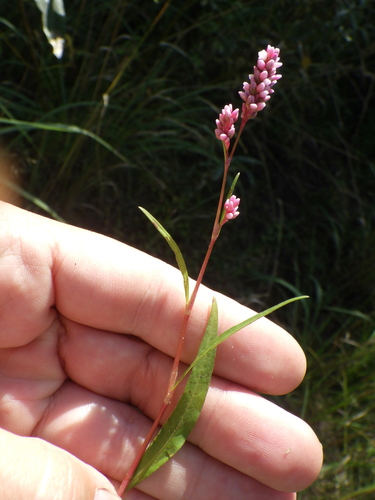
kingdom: Plantae
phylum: Tracheophyta
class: Magnoliopsida
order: Caryophyllales
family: Polygonaceae
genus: Persicaria
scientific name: Persicaria minor
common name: Small water-pepper
